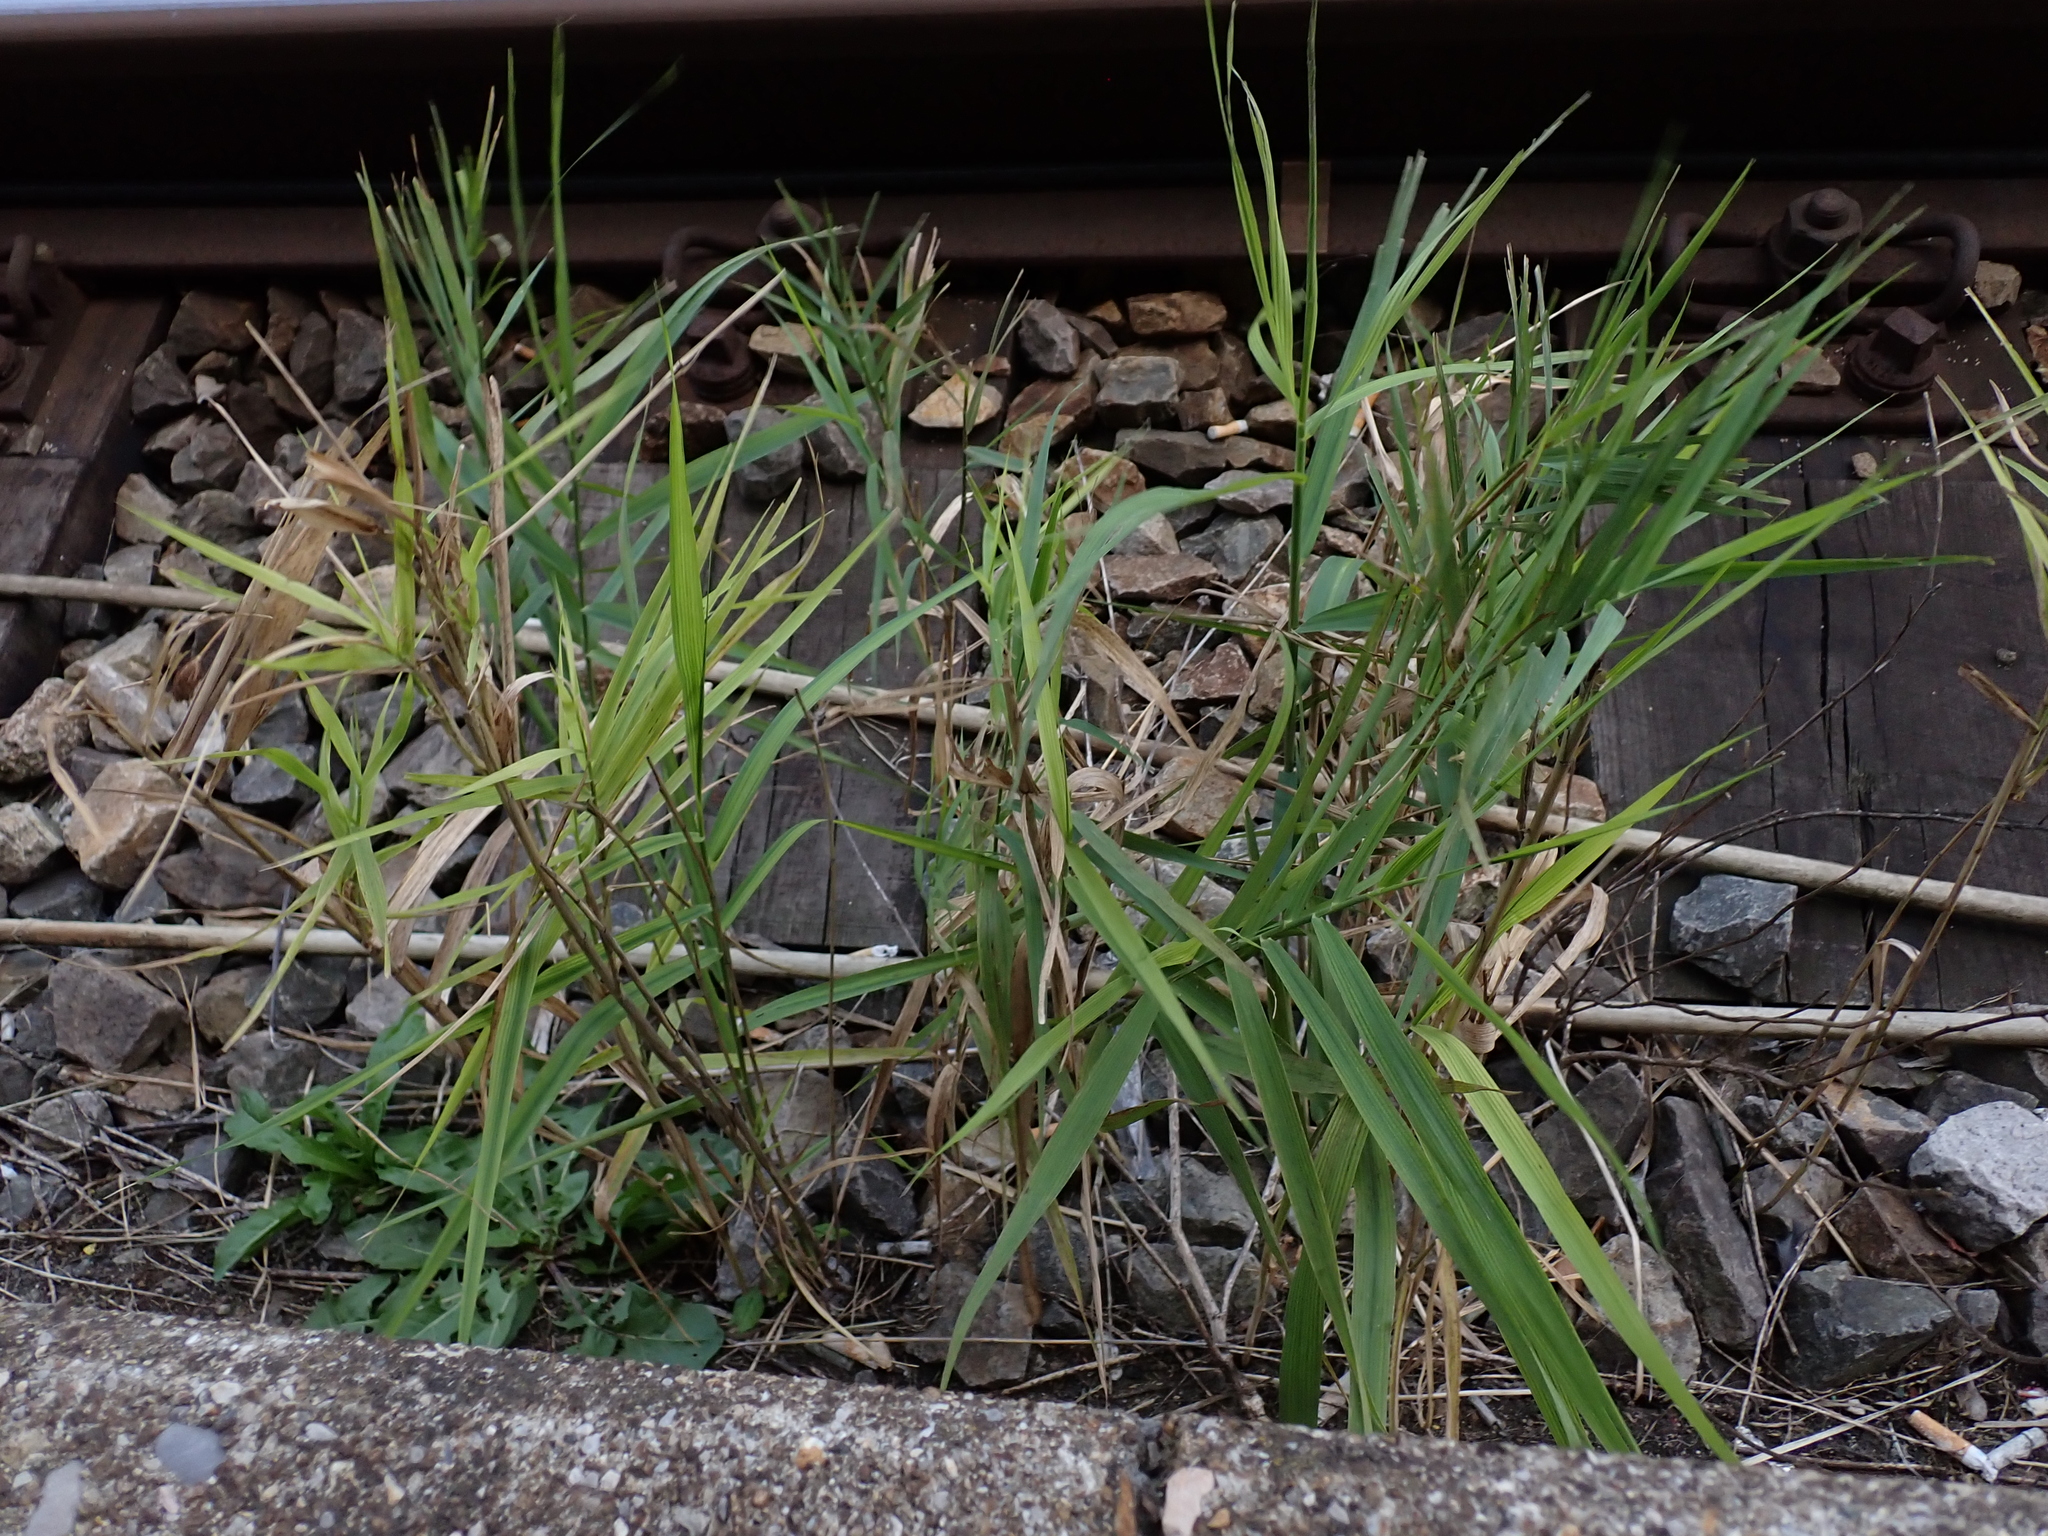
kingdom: Plantae
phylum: Tracheophyta
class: Liliopsida
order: Poales
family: Poaceae
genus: Phragmites
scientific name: Phragmites australis
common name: Common reed
